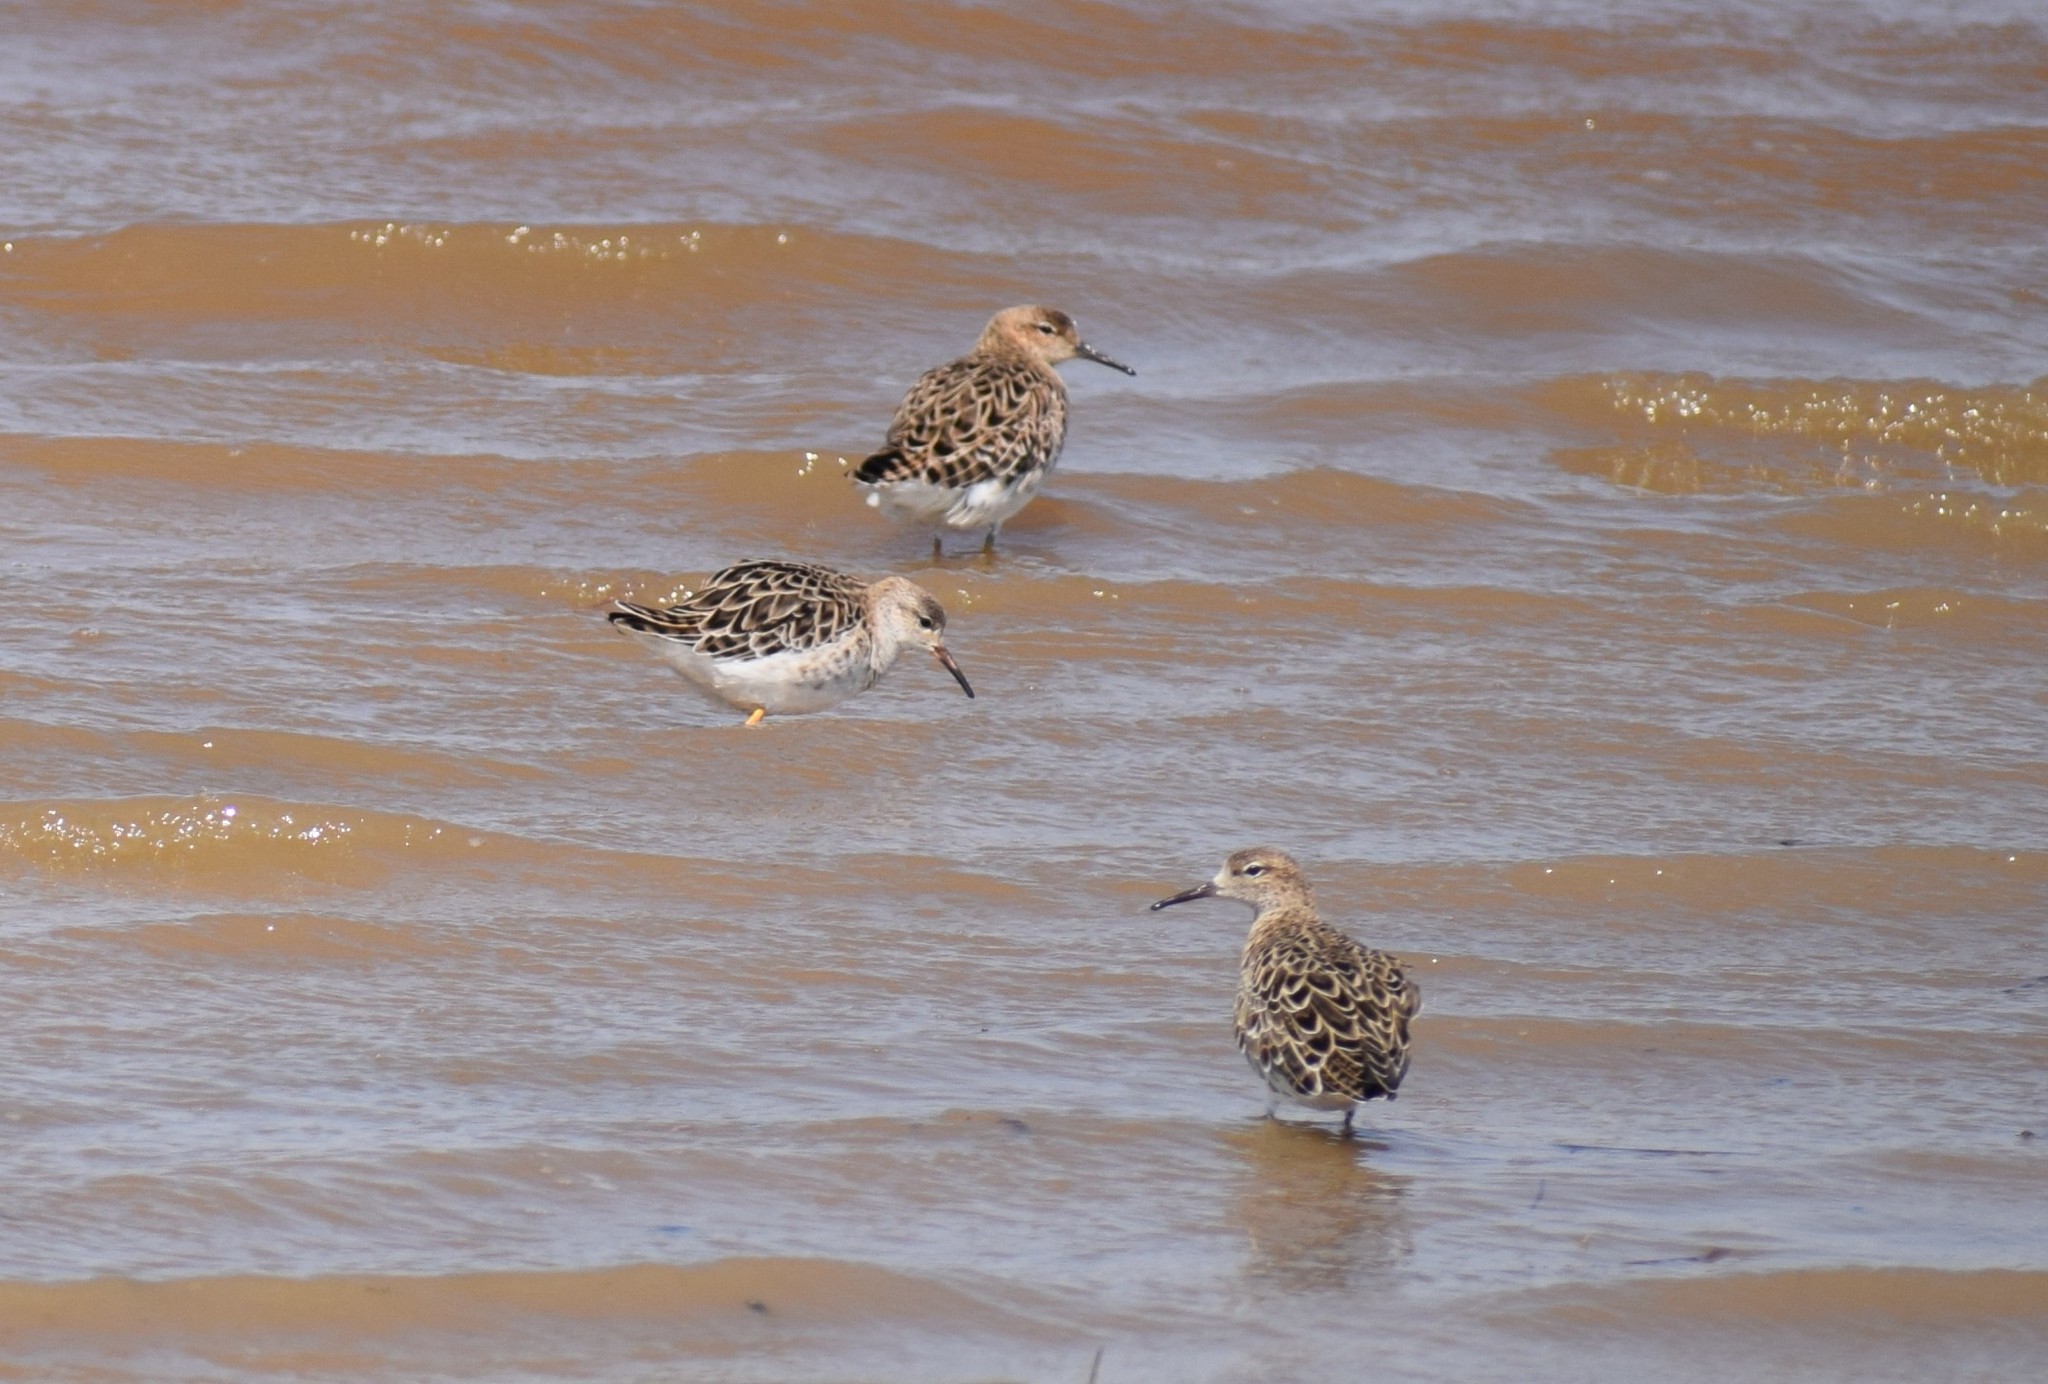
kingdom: Animalia
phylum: Chordata
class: Aves
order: Charadriiformes
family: Scolopacidae
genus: Calidris
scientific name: Calidris pugnax
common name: Ruff
